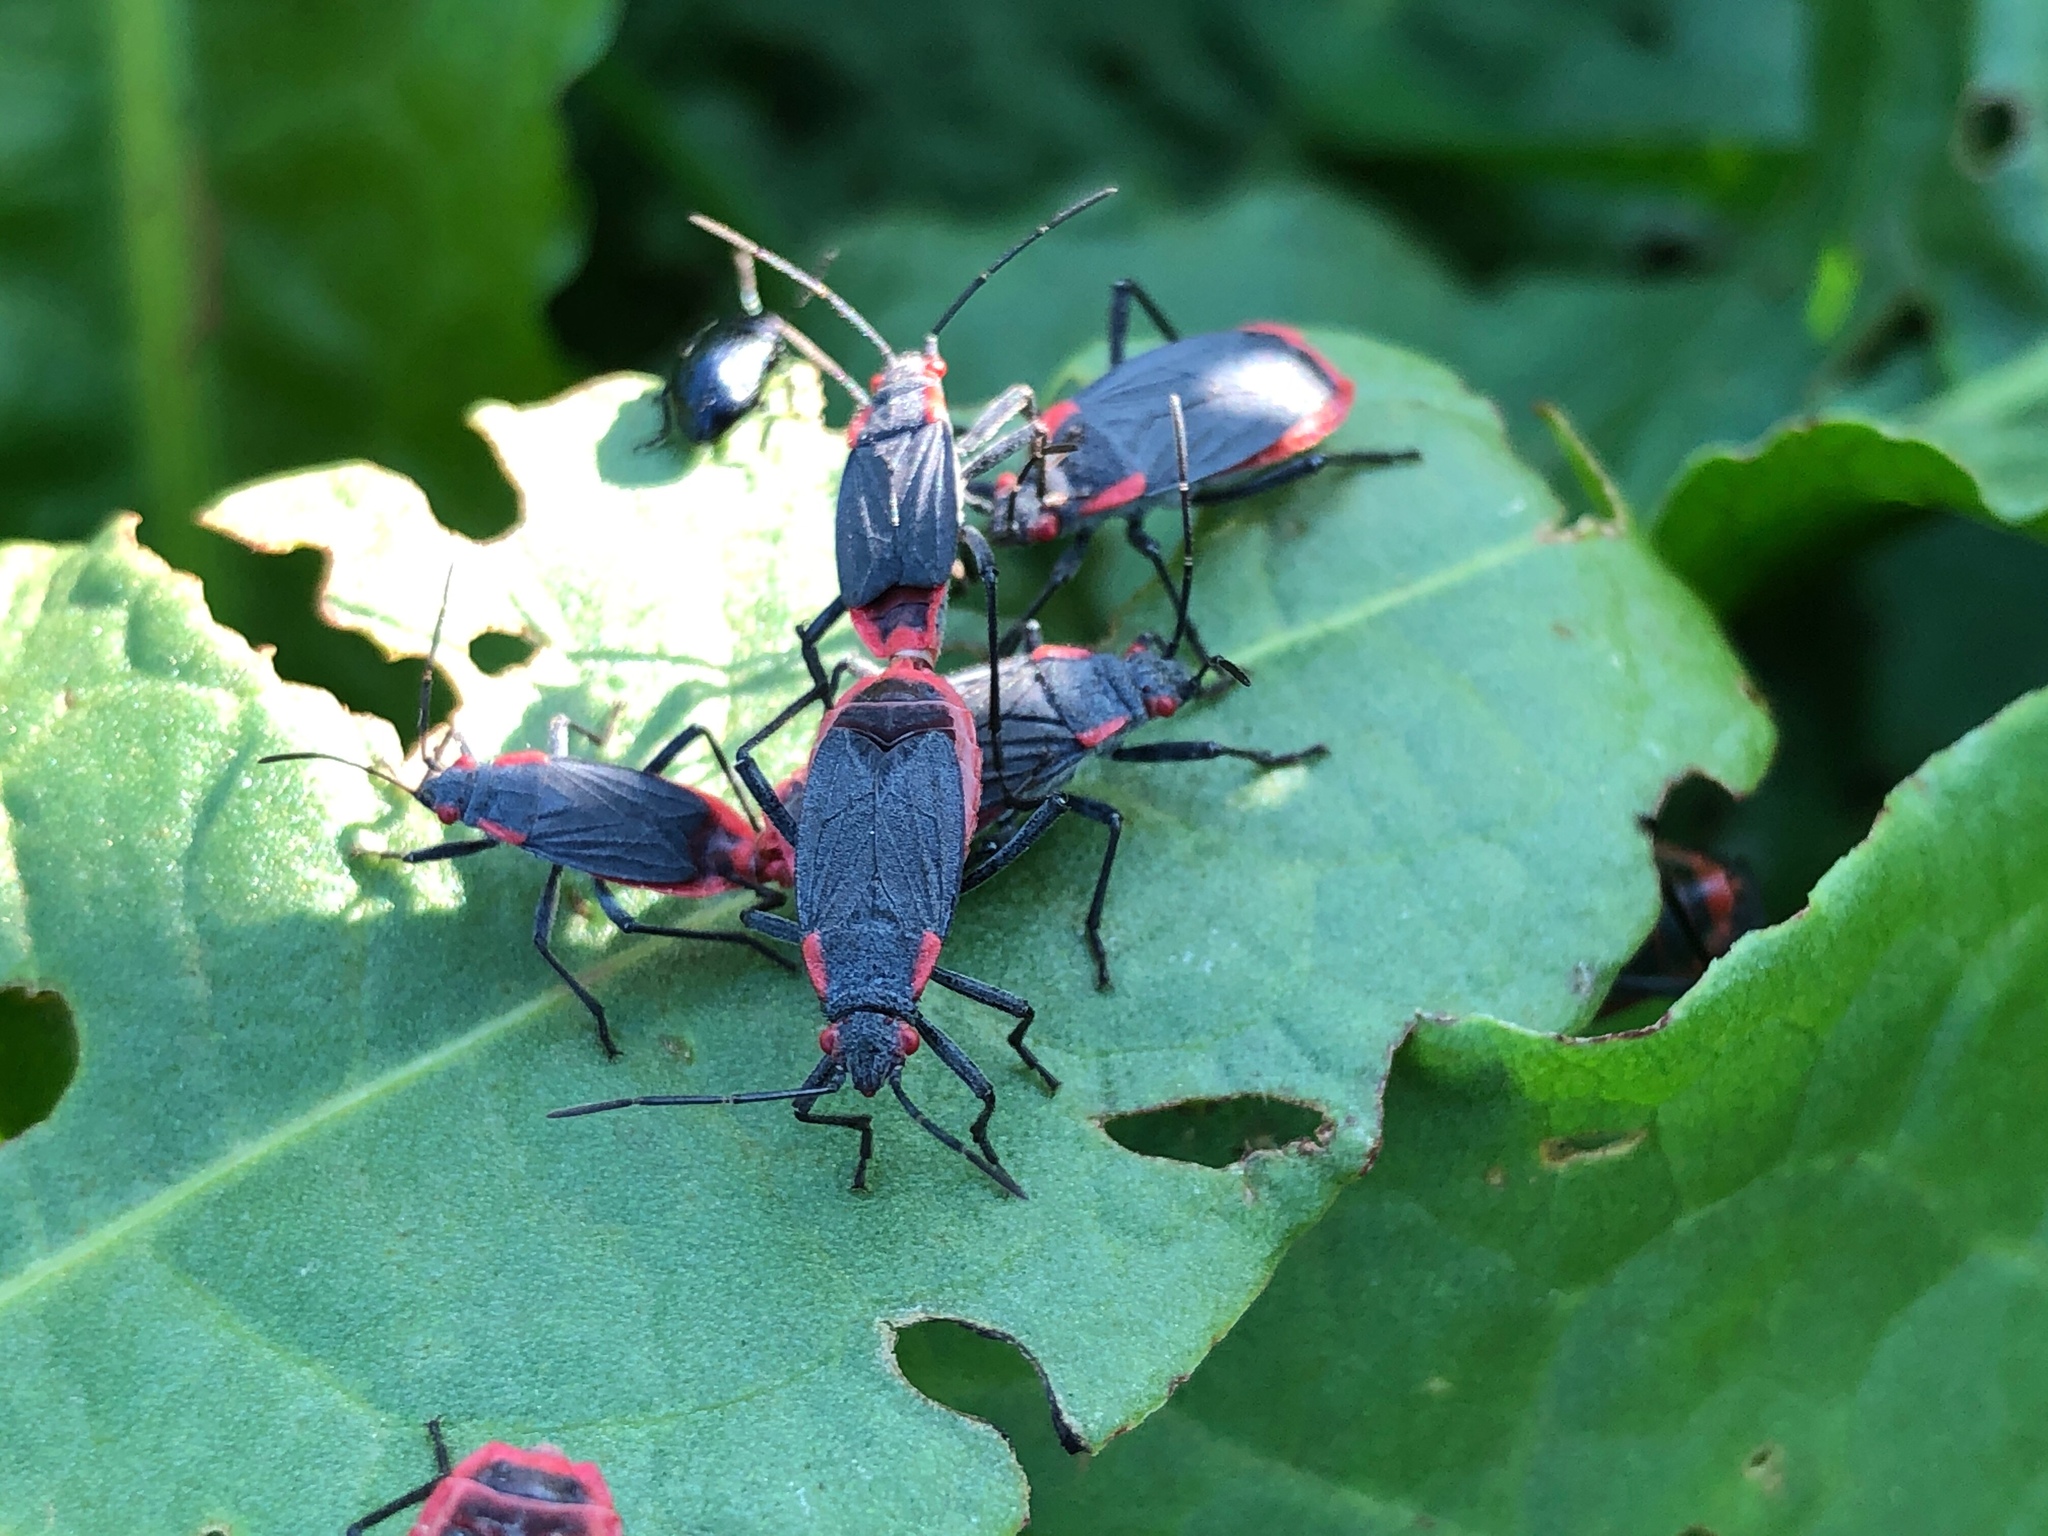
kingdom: Animalia
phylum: Arthropoda
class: Insecta
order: Hemiptera
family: Rhopalidae
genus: Jadera
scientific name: Jadera haematoloma
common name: Red-shouldered bug
